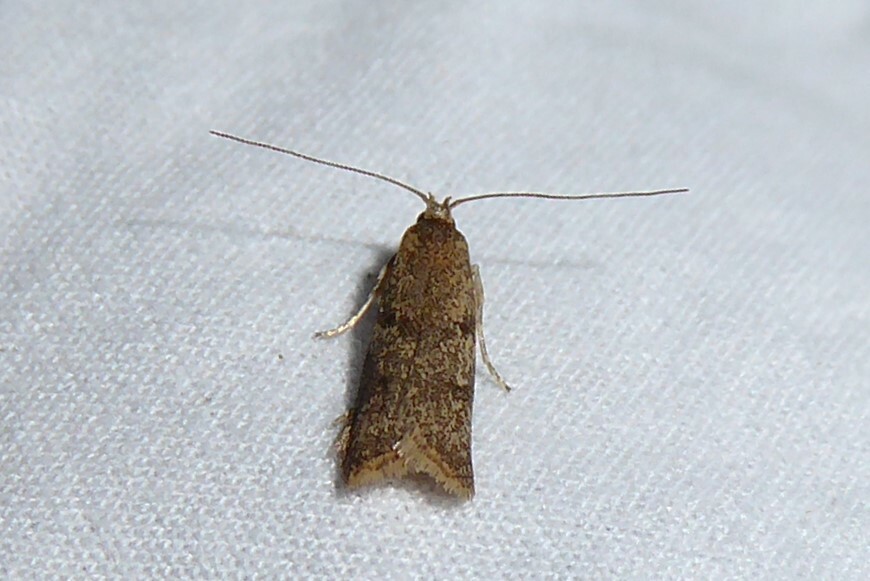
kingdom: Animalia
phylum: Arthropoda
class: Insecta
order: Lepidoptera
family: Oecophoridae
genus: Gymnobathra
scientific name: Gymnobathra tholodella
